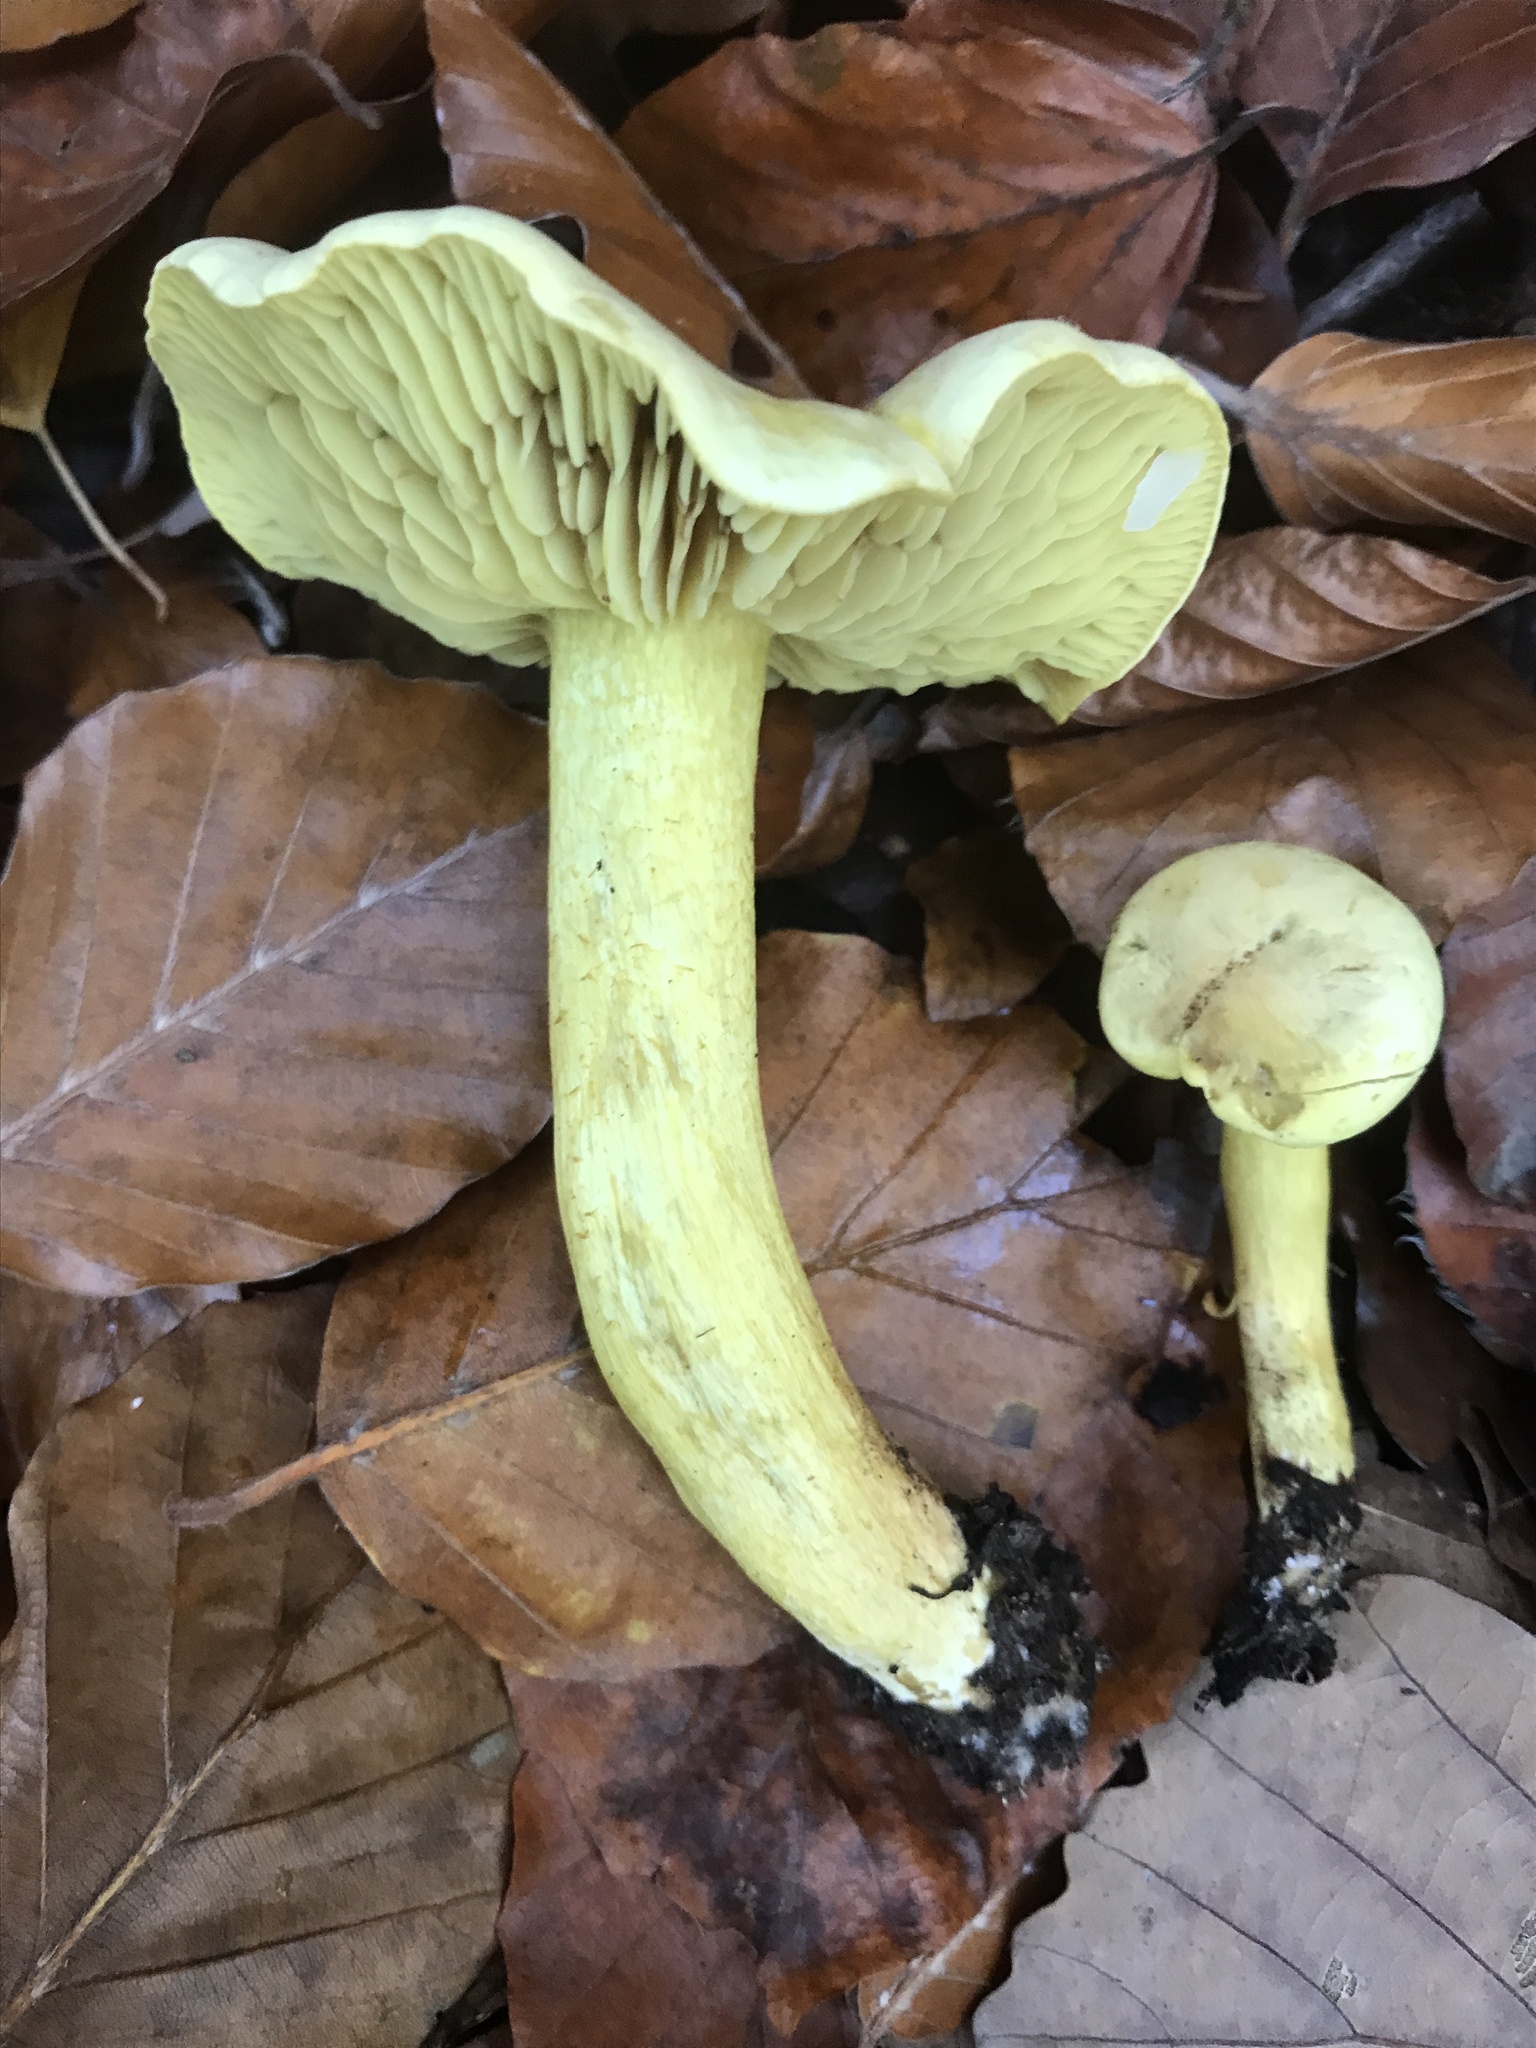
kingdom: Fungi
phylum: Basidiomycota
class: Agaricomycetes
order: Agaricales
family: Tricholomataceae
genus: Tricholoma
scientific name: Tricholoma sulphureum
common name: Stinky knight
